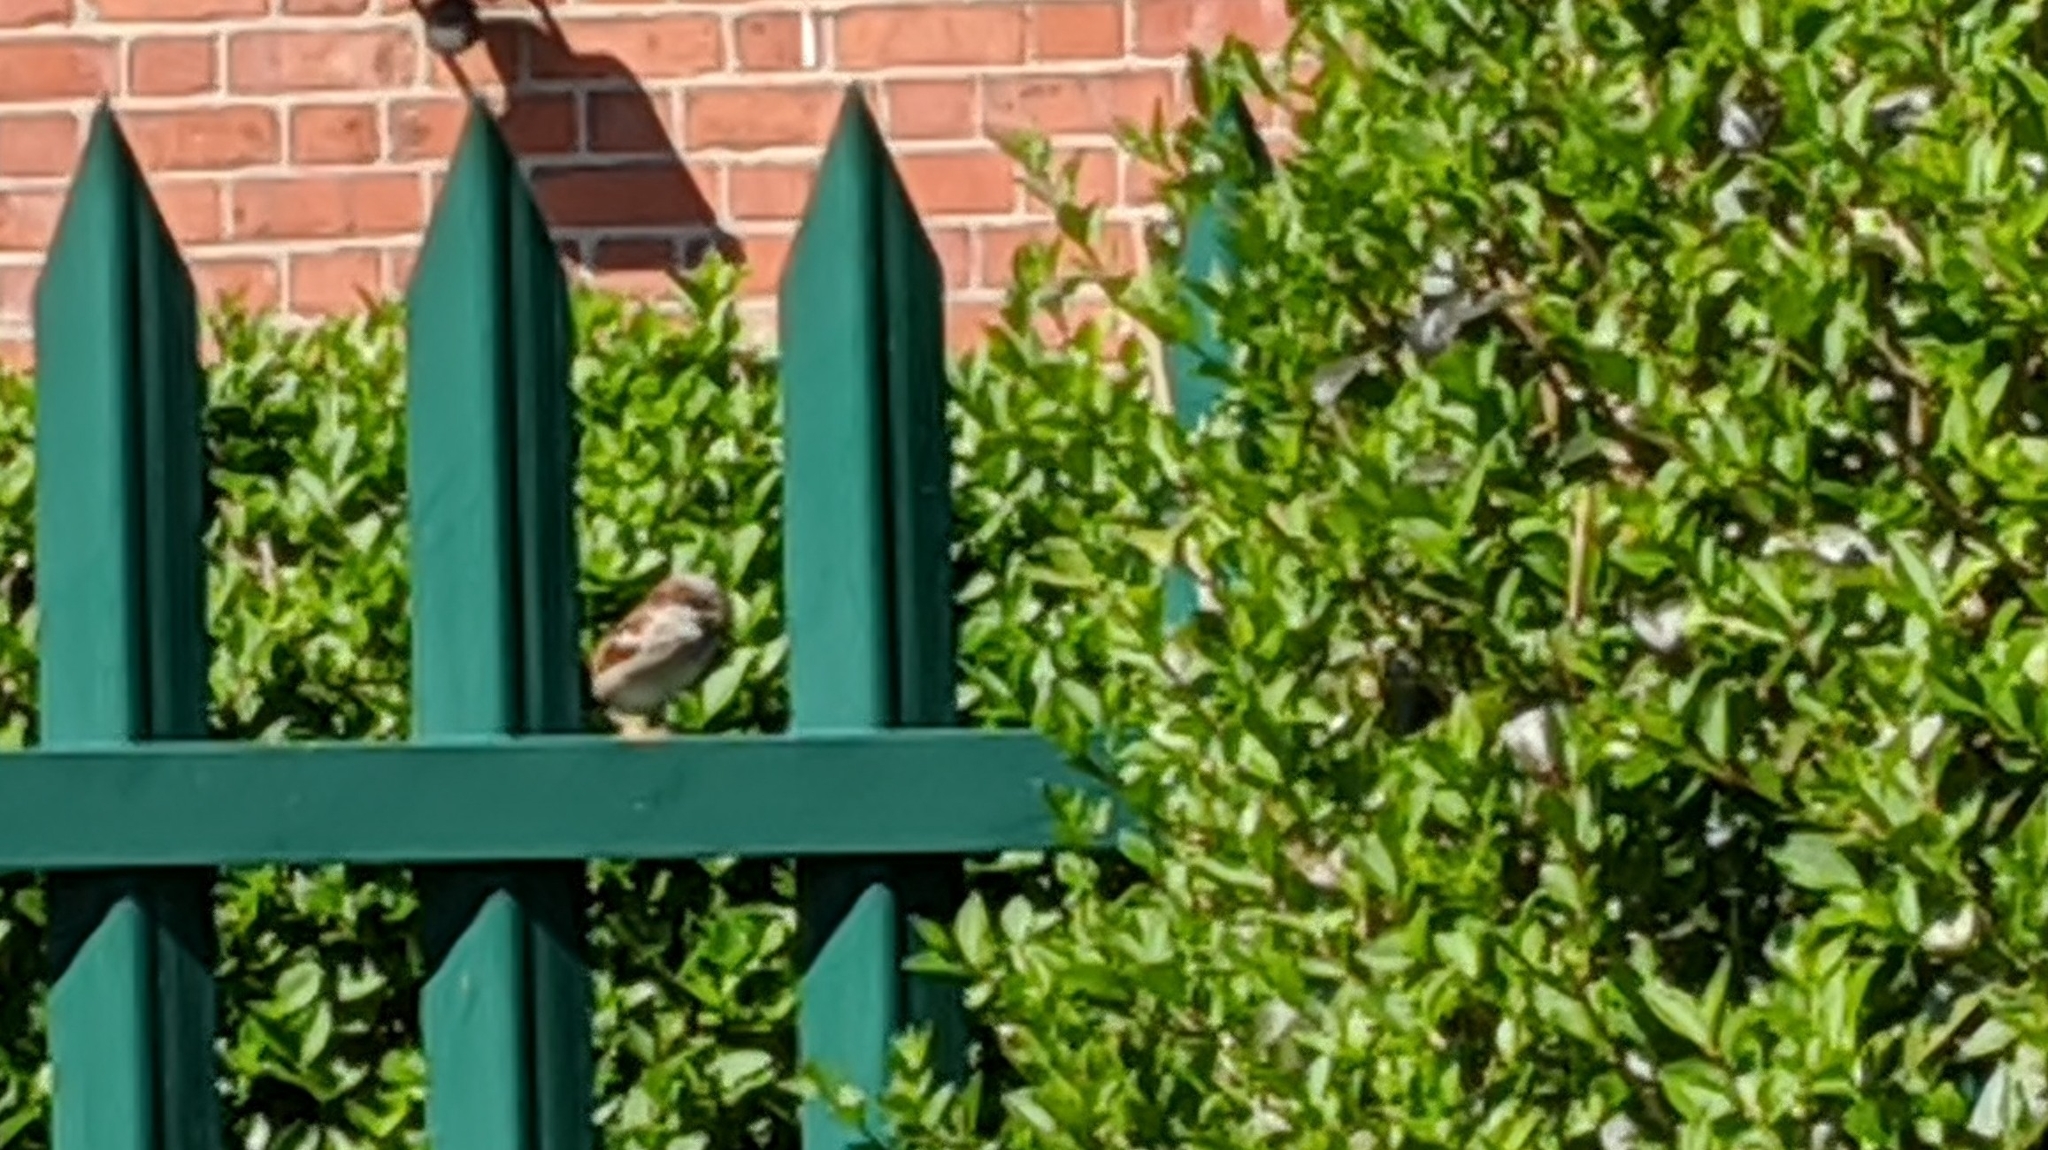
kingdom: Animalia
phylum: Chordata
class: Aves
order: Passeriformes
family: Passeridae
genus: Passer
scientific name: Passer domesticus
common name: House sparrow
